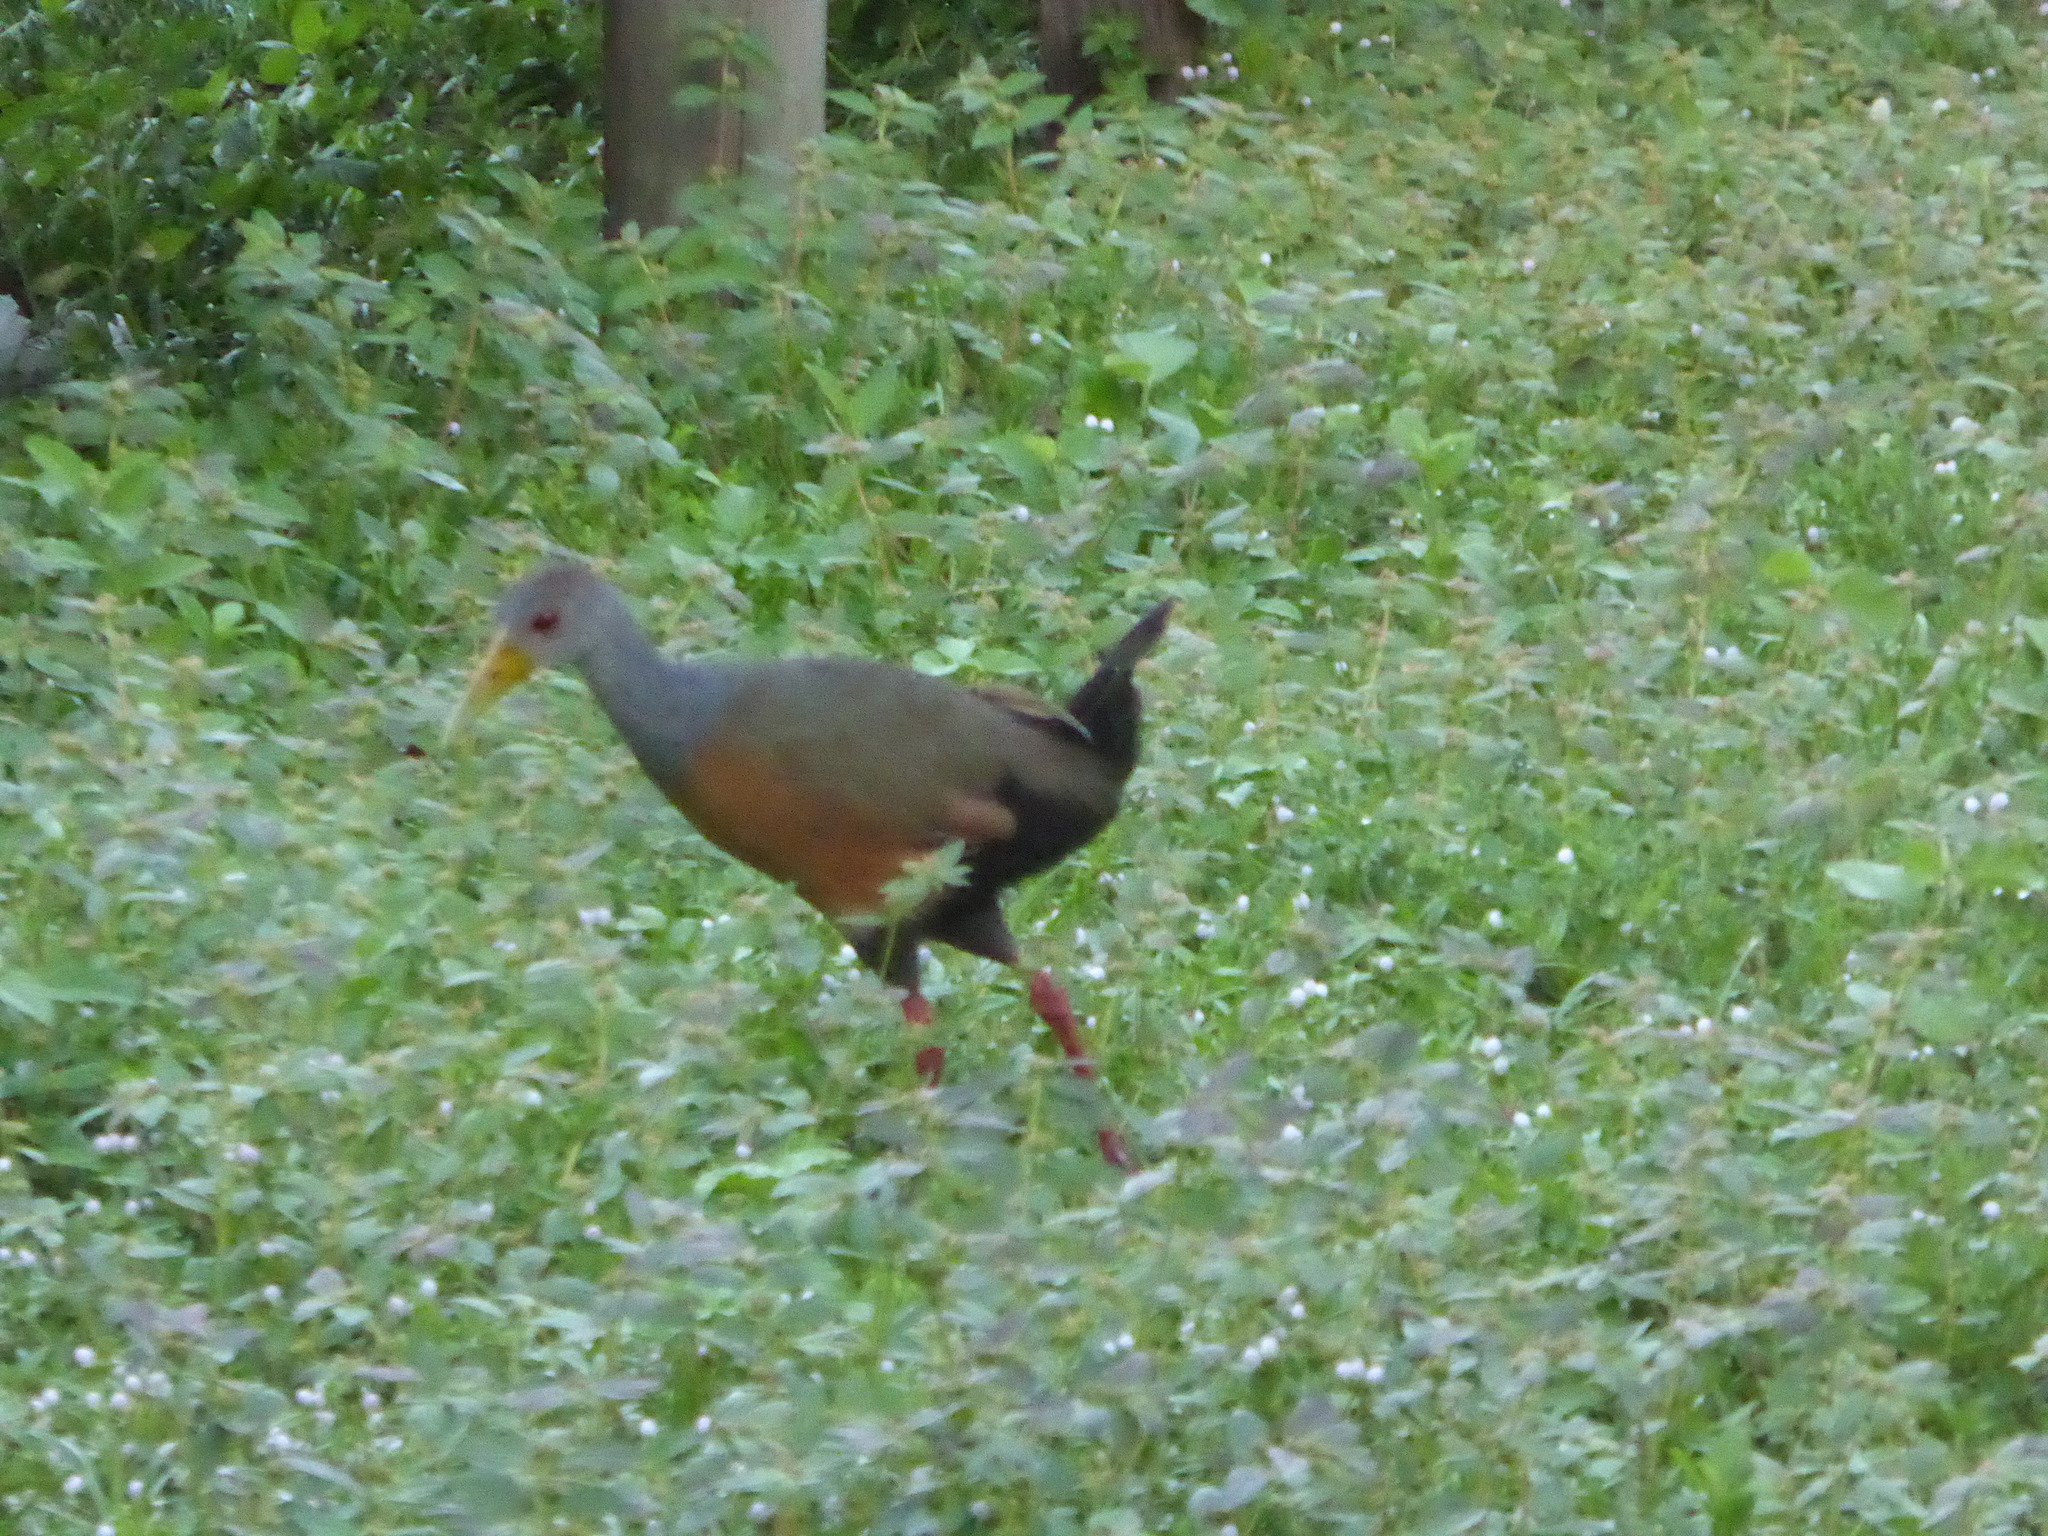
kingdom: Animalia
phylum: Chordata
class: Aves
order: Gruiformes
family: Rallidae
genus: Aramides
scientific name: Aramides cajanea
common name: Gray-necked wood-rail
